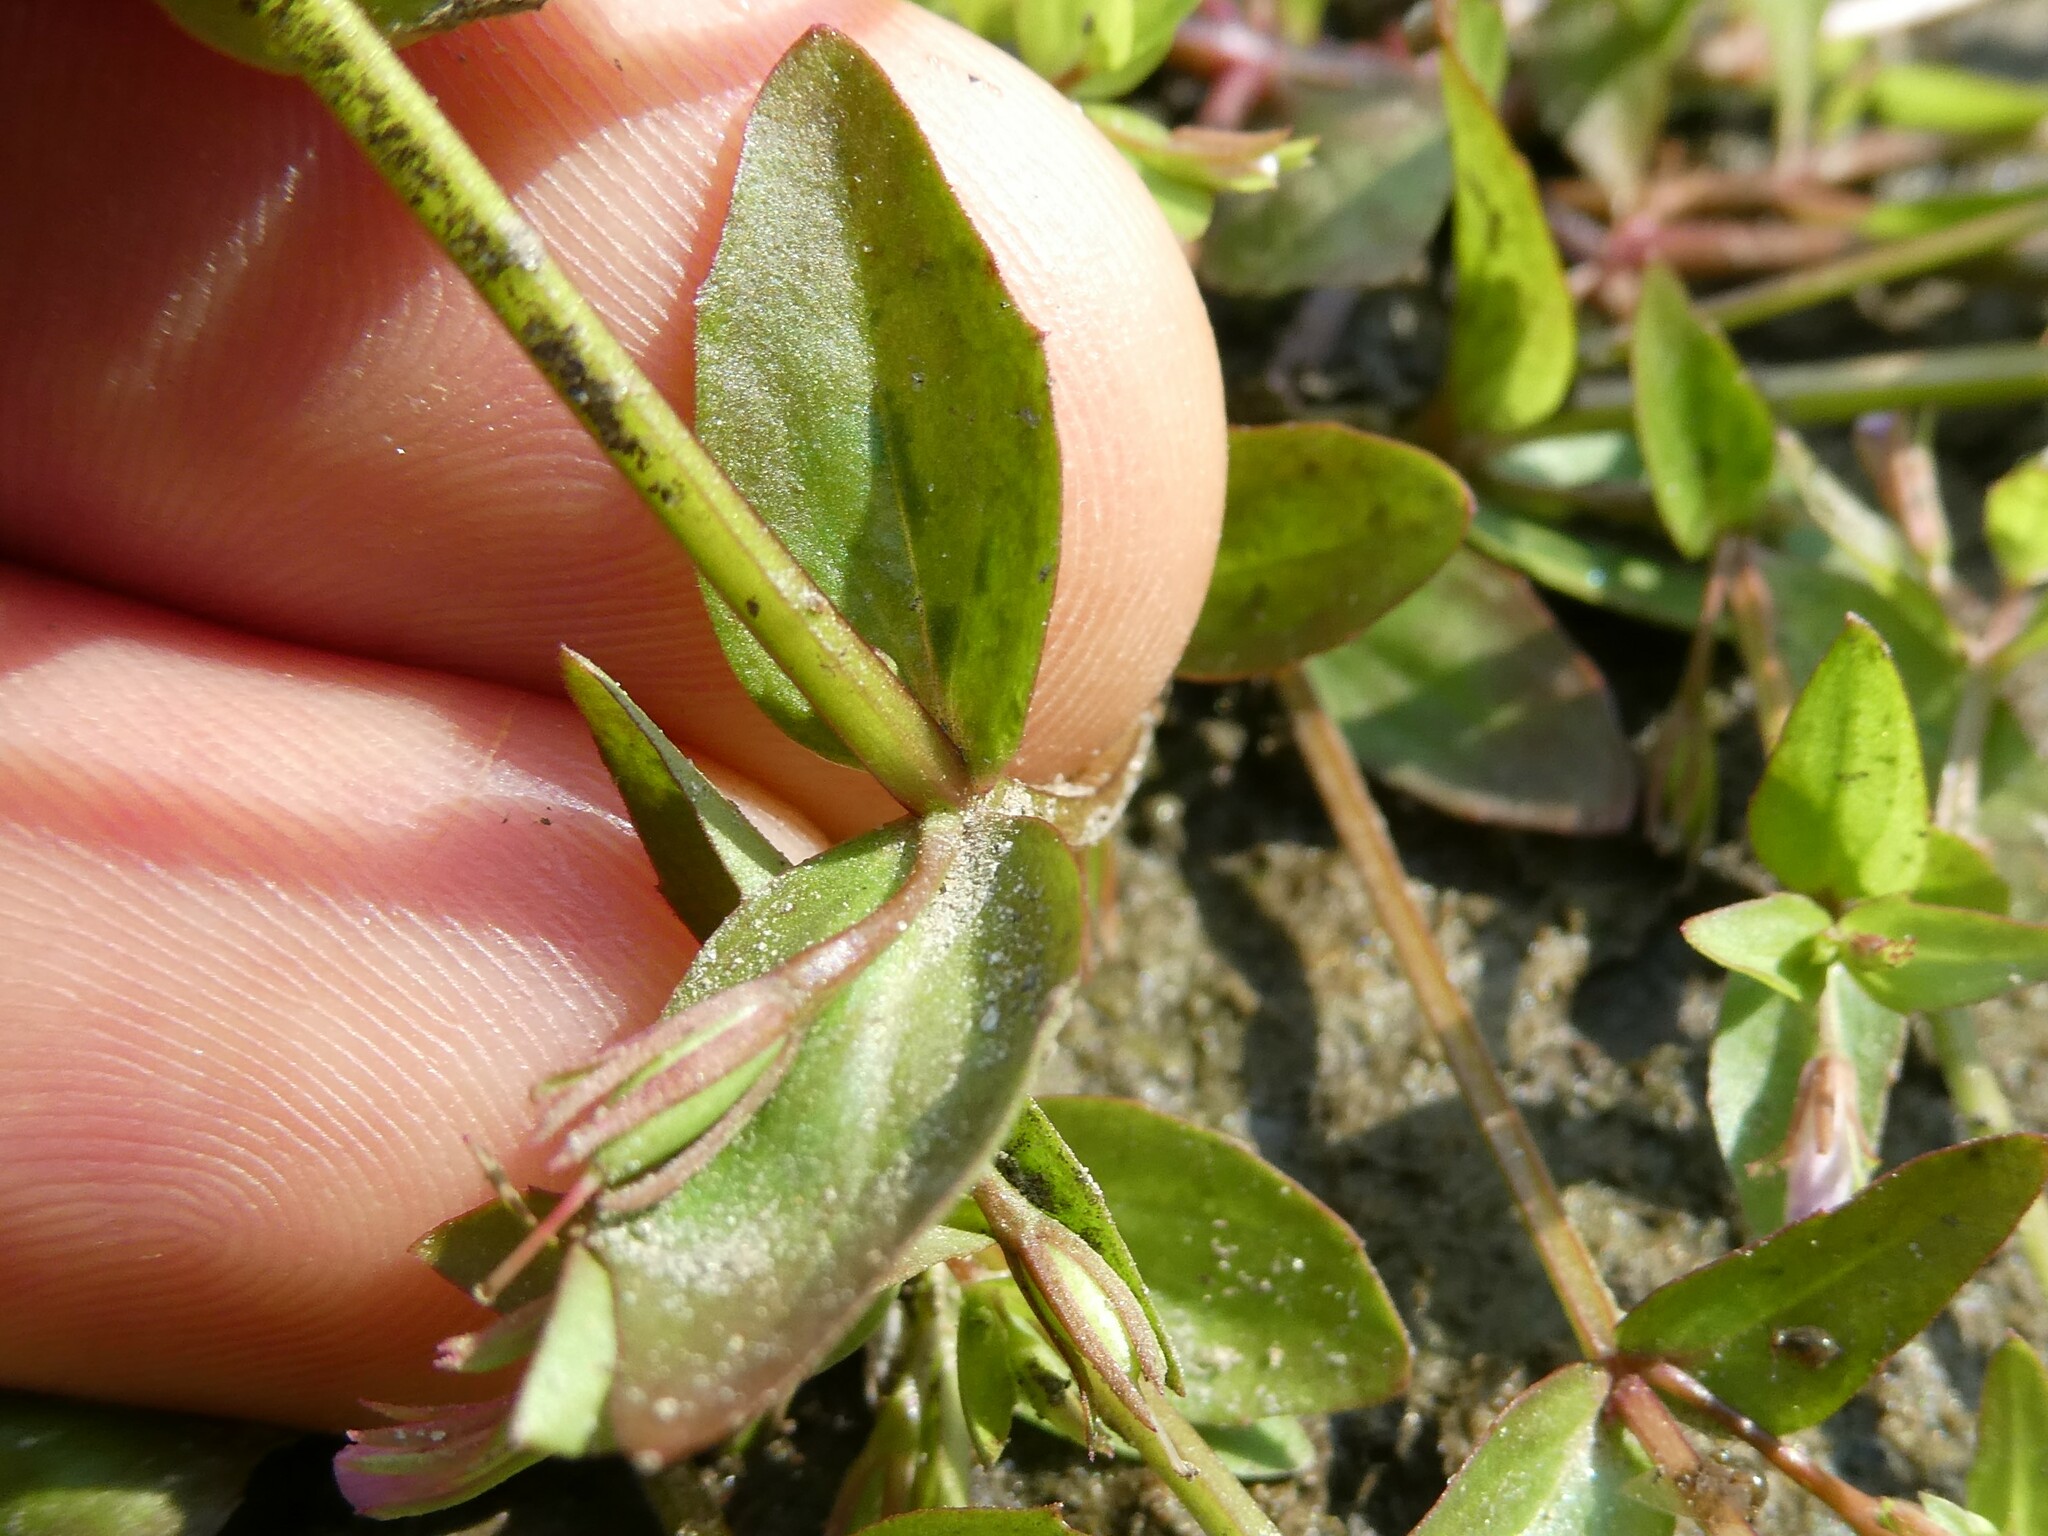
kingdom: Plantae
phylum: Tracheophyta
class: Magnoliopsida
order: Lamiales
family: Linderniaceae
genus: Lindernia
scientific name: Lindernia dubia
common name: Annual false pimpernel
